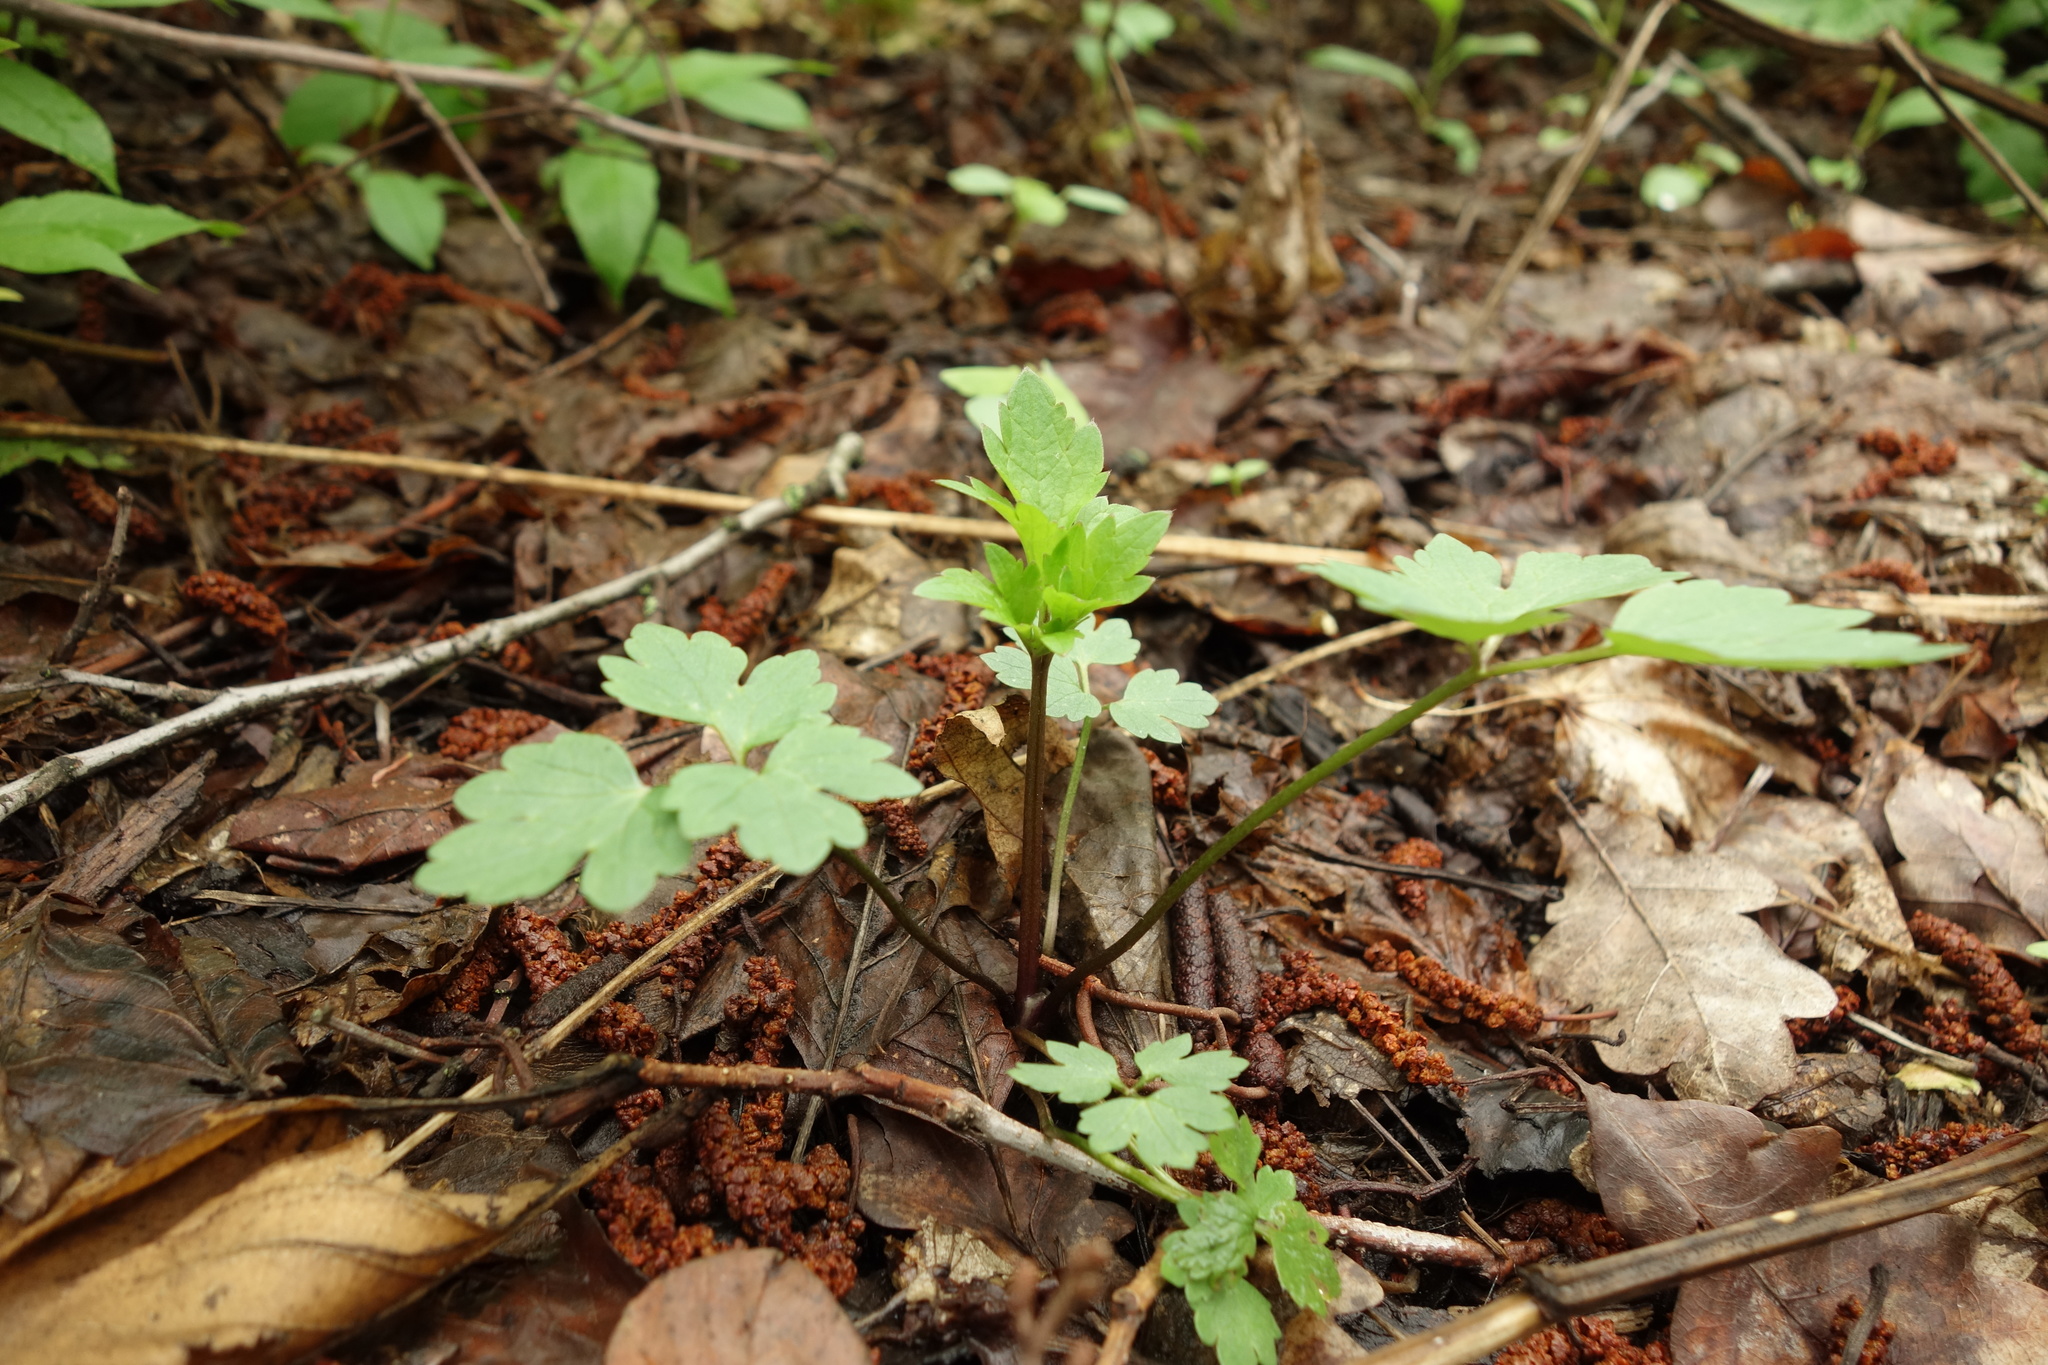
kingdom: Plantae
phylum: Tracheophyta
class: Magnoliopsida
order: Ranunculales
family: Ranunculaceae
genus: Ranunculus
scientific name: Ranunculus repens
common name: Creeping buttercup
